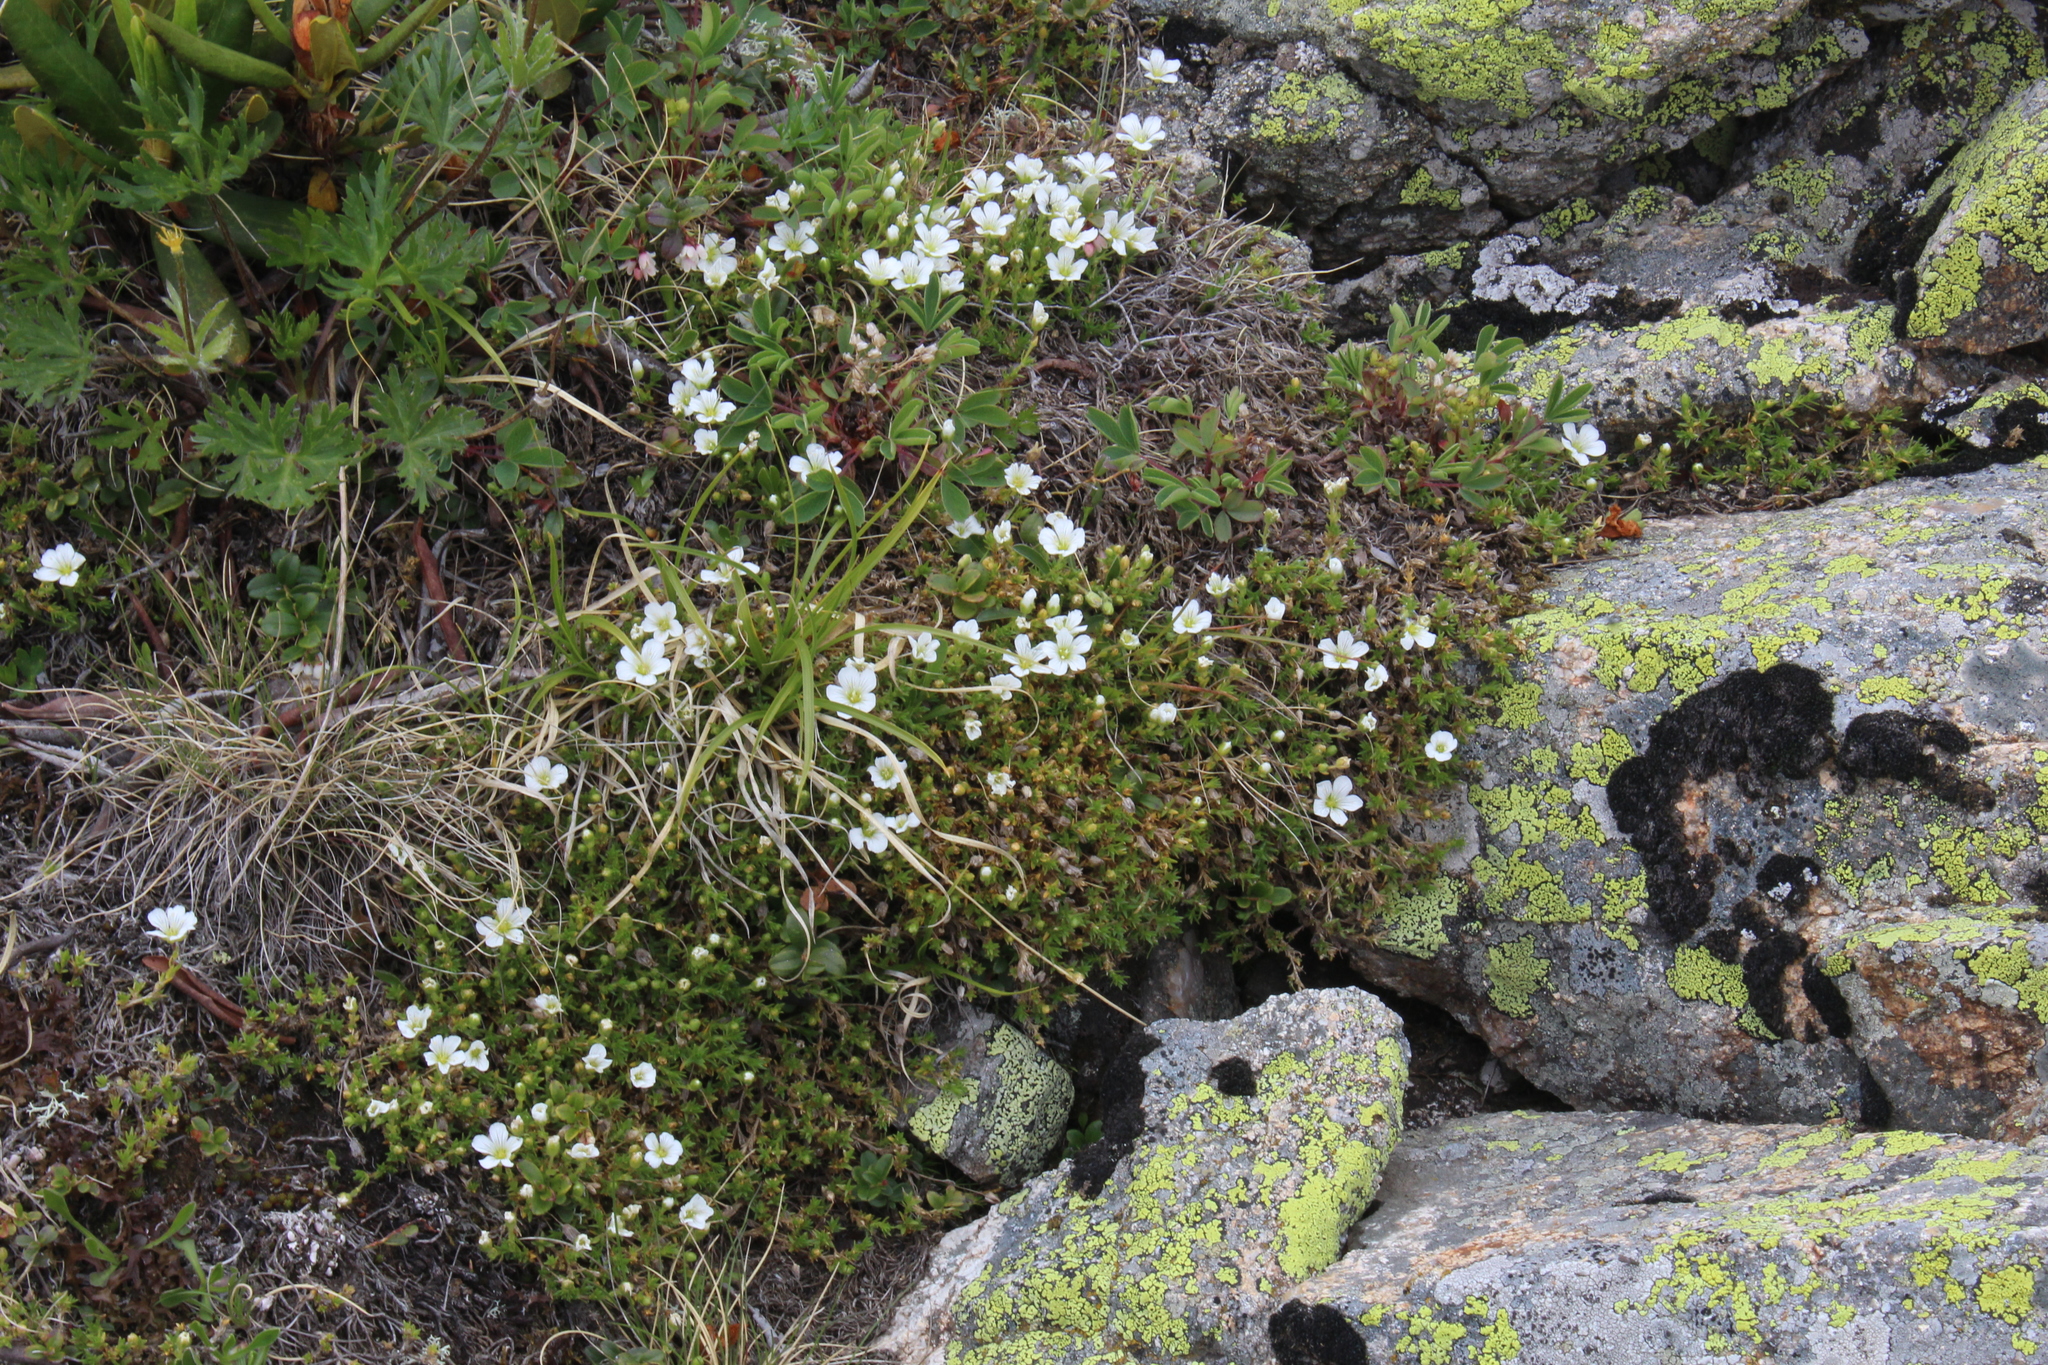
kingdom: Plantae
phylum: Tracheophyta
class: Magnoliopsida
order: Caryophyllales
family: Caryophyllaceae
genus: Pseudocherleria
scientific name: Pseudocherleria imbricata
